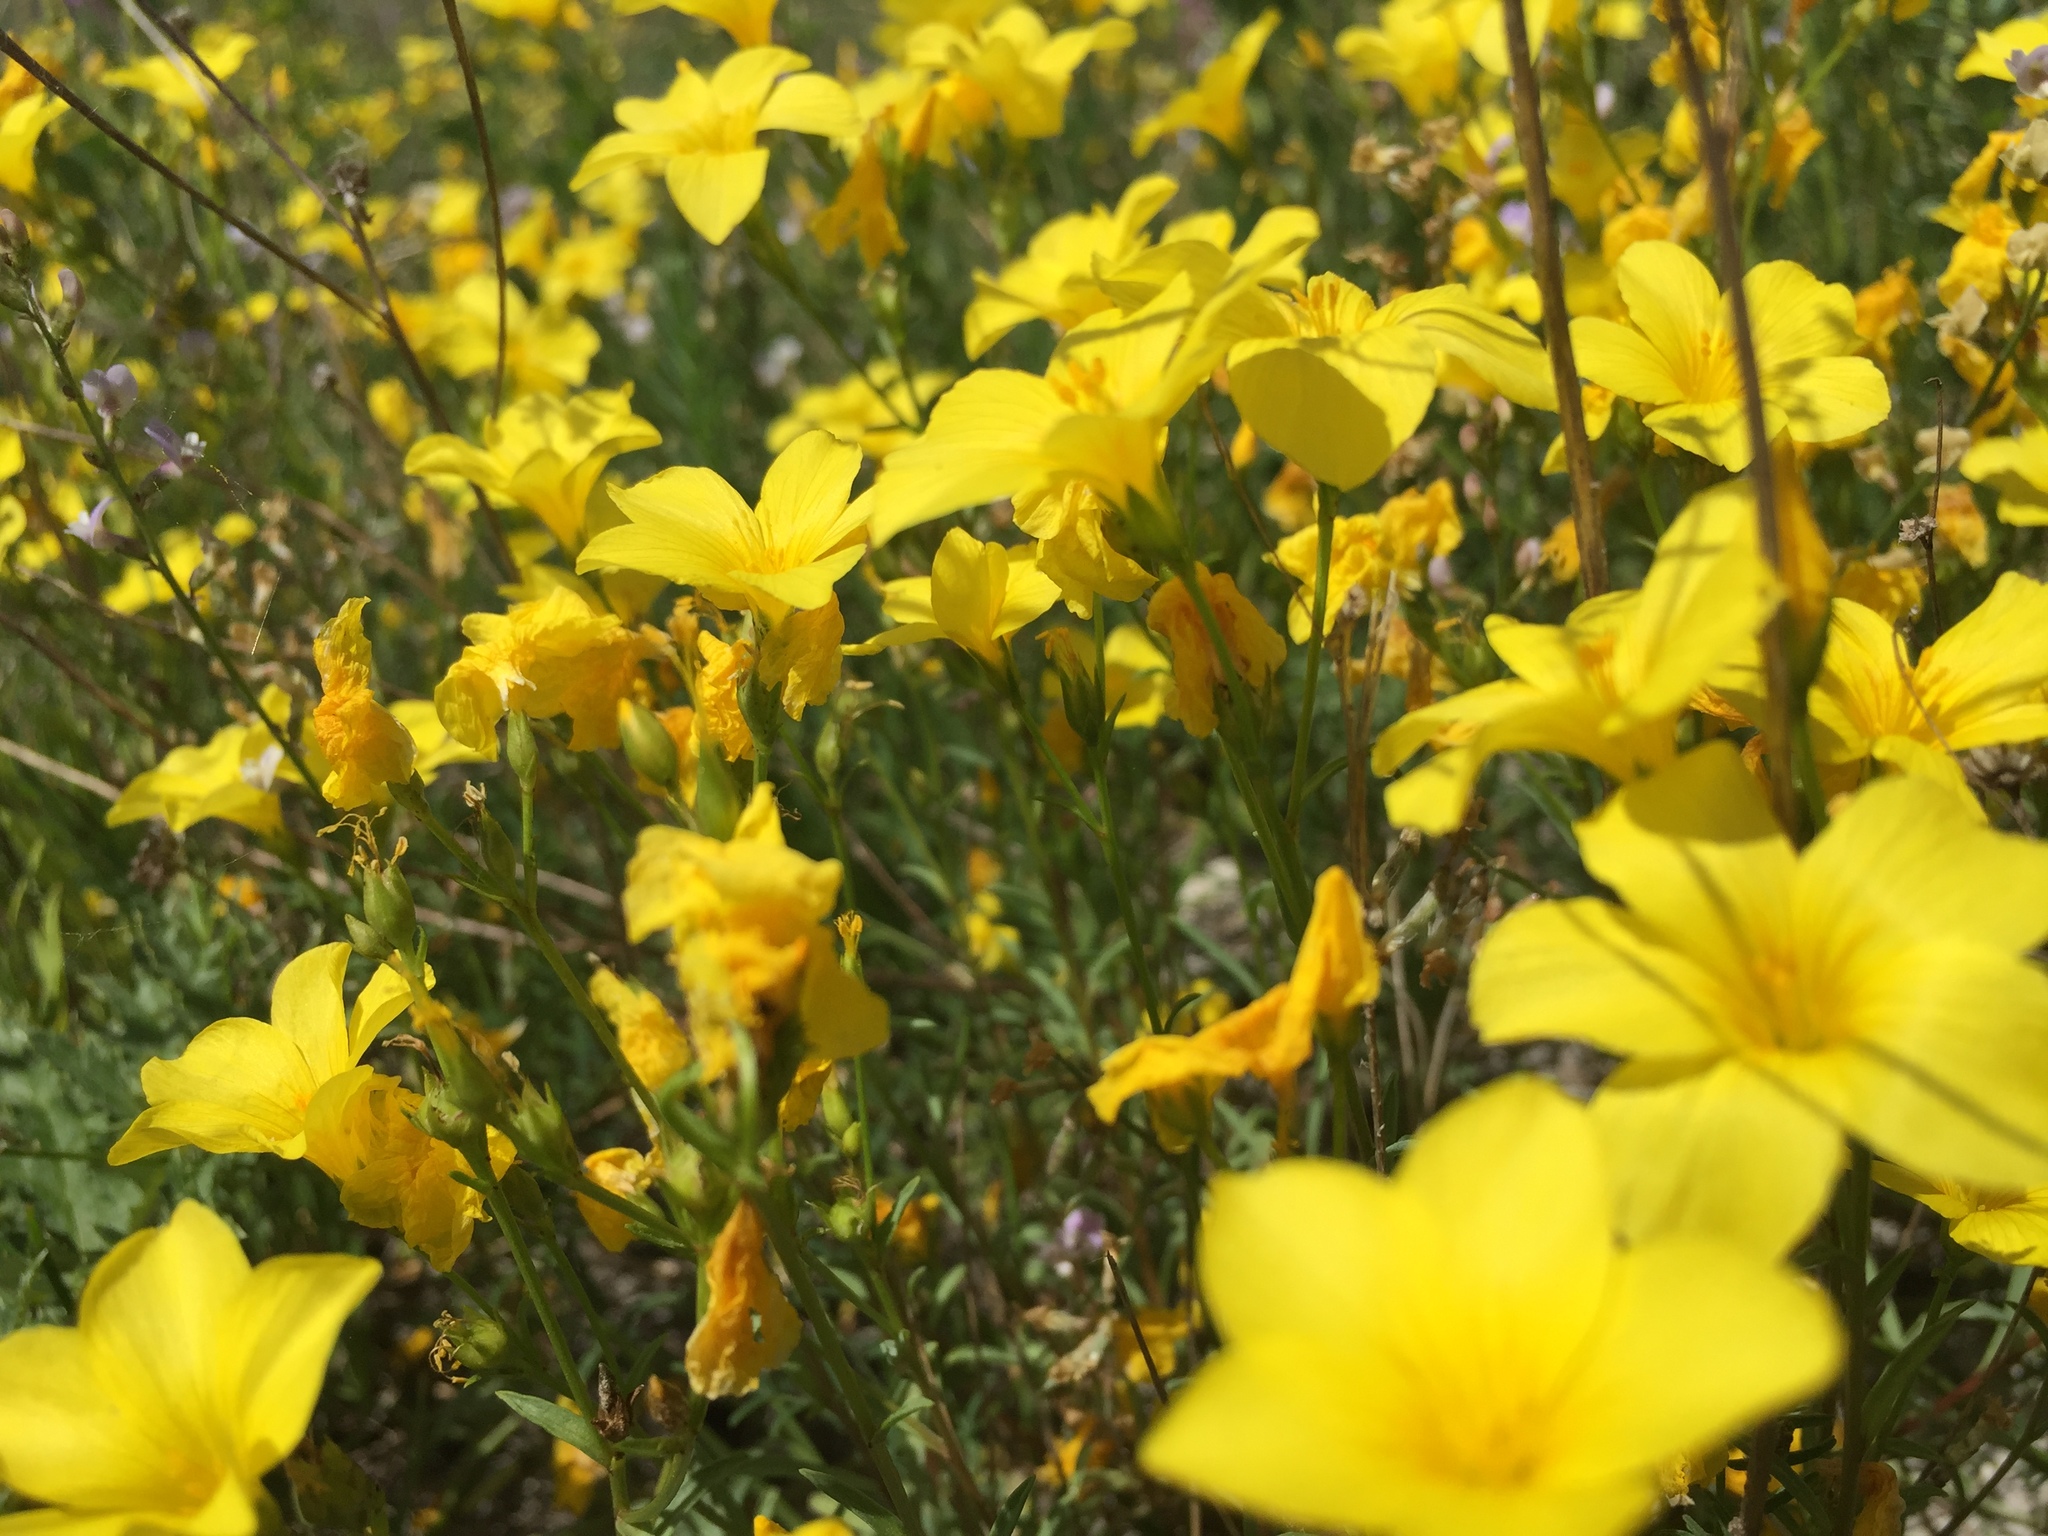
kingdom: Plantae
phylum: Tracheophyta
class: Magnoliopsida
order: Malpighiales
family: Linaceae
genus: Linum
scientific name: Linum ucranicum
